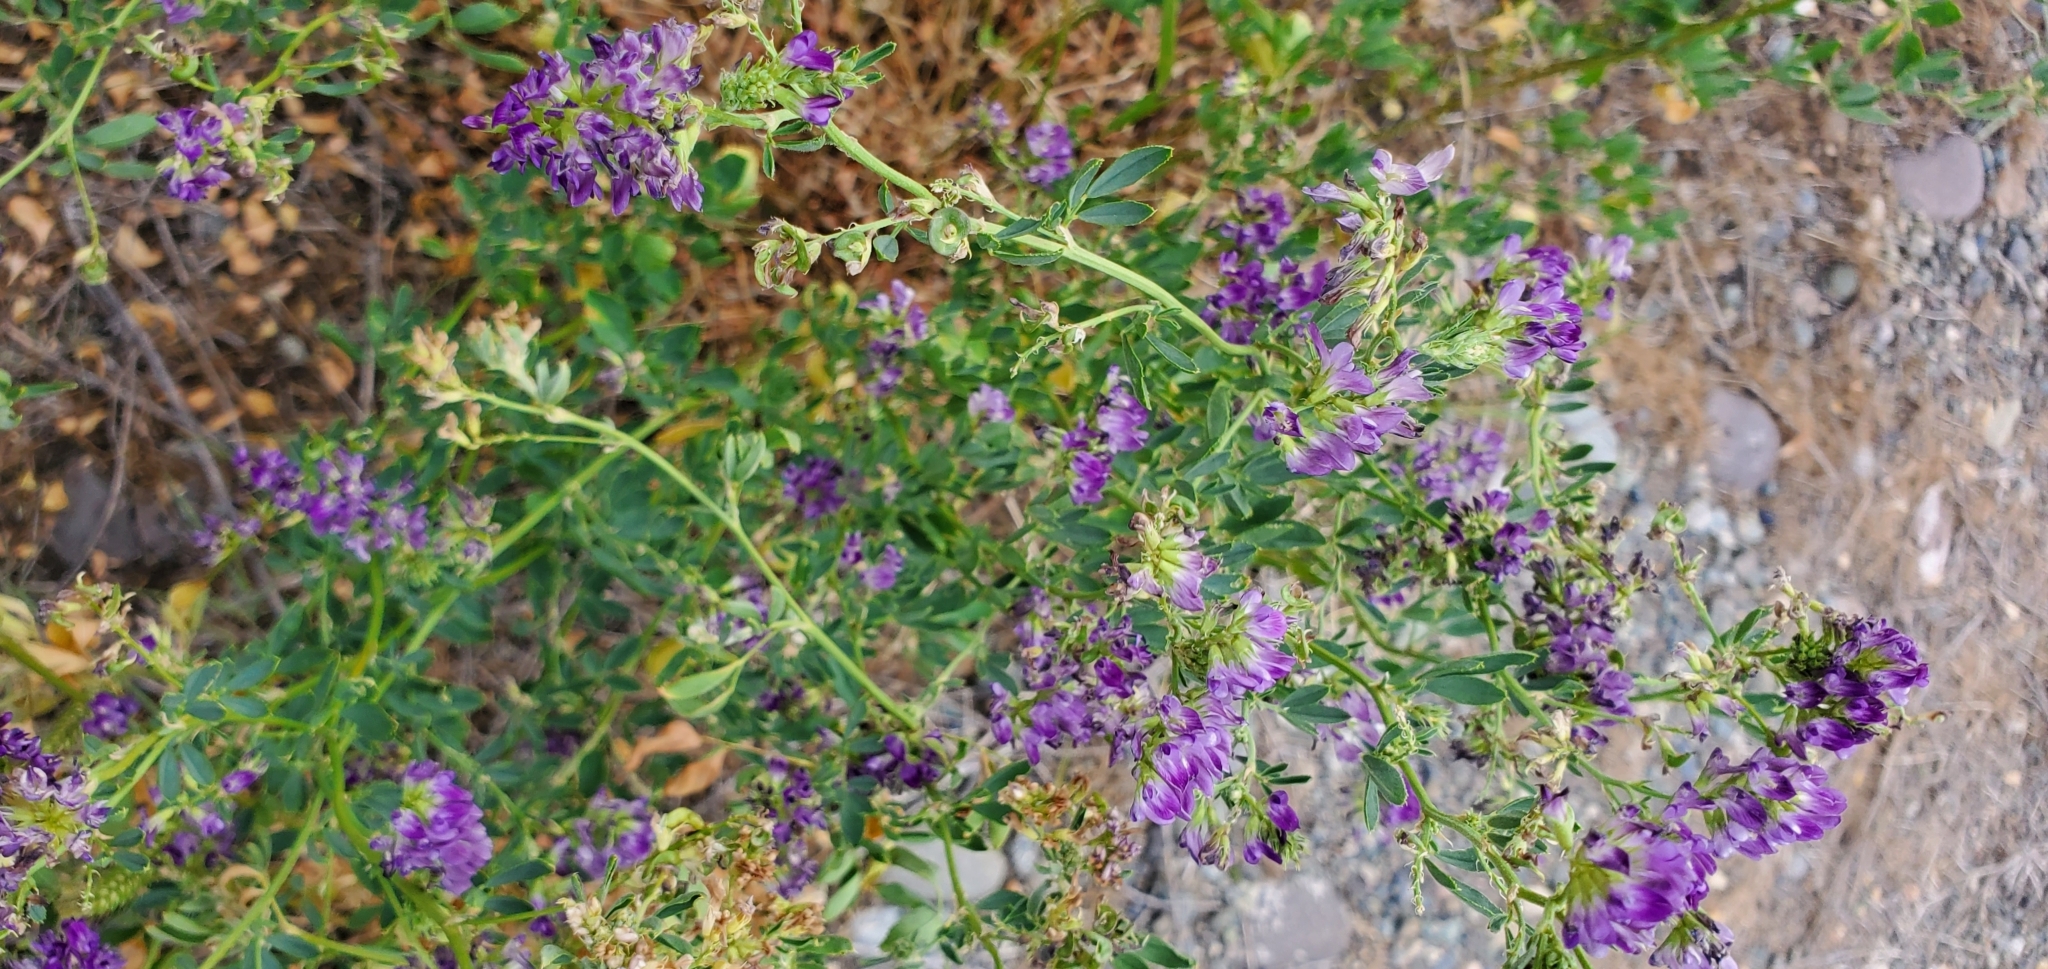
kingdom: Plantae
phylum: Tracheophyta
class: Magnoliopsida
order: Fabales
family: Fabaceae
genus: Medicago
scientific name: Medicago sativa
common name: Alfalfa
